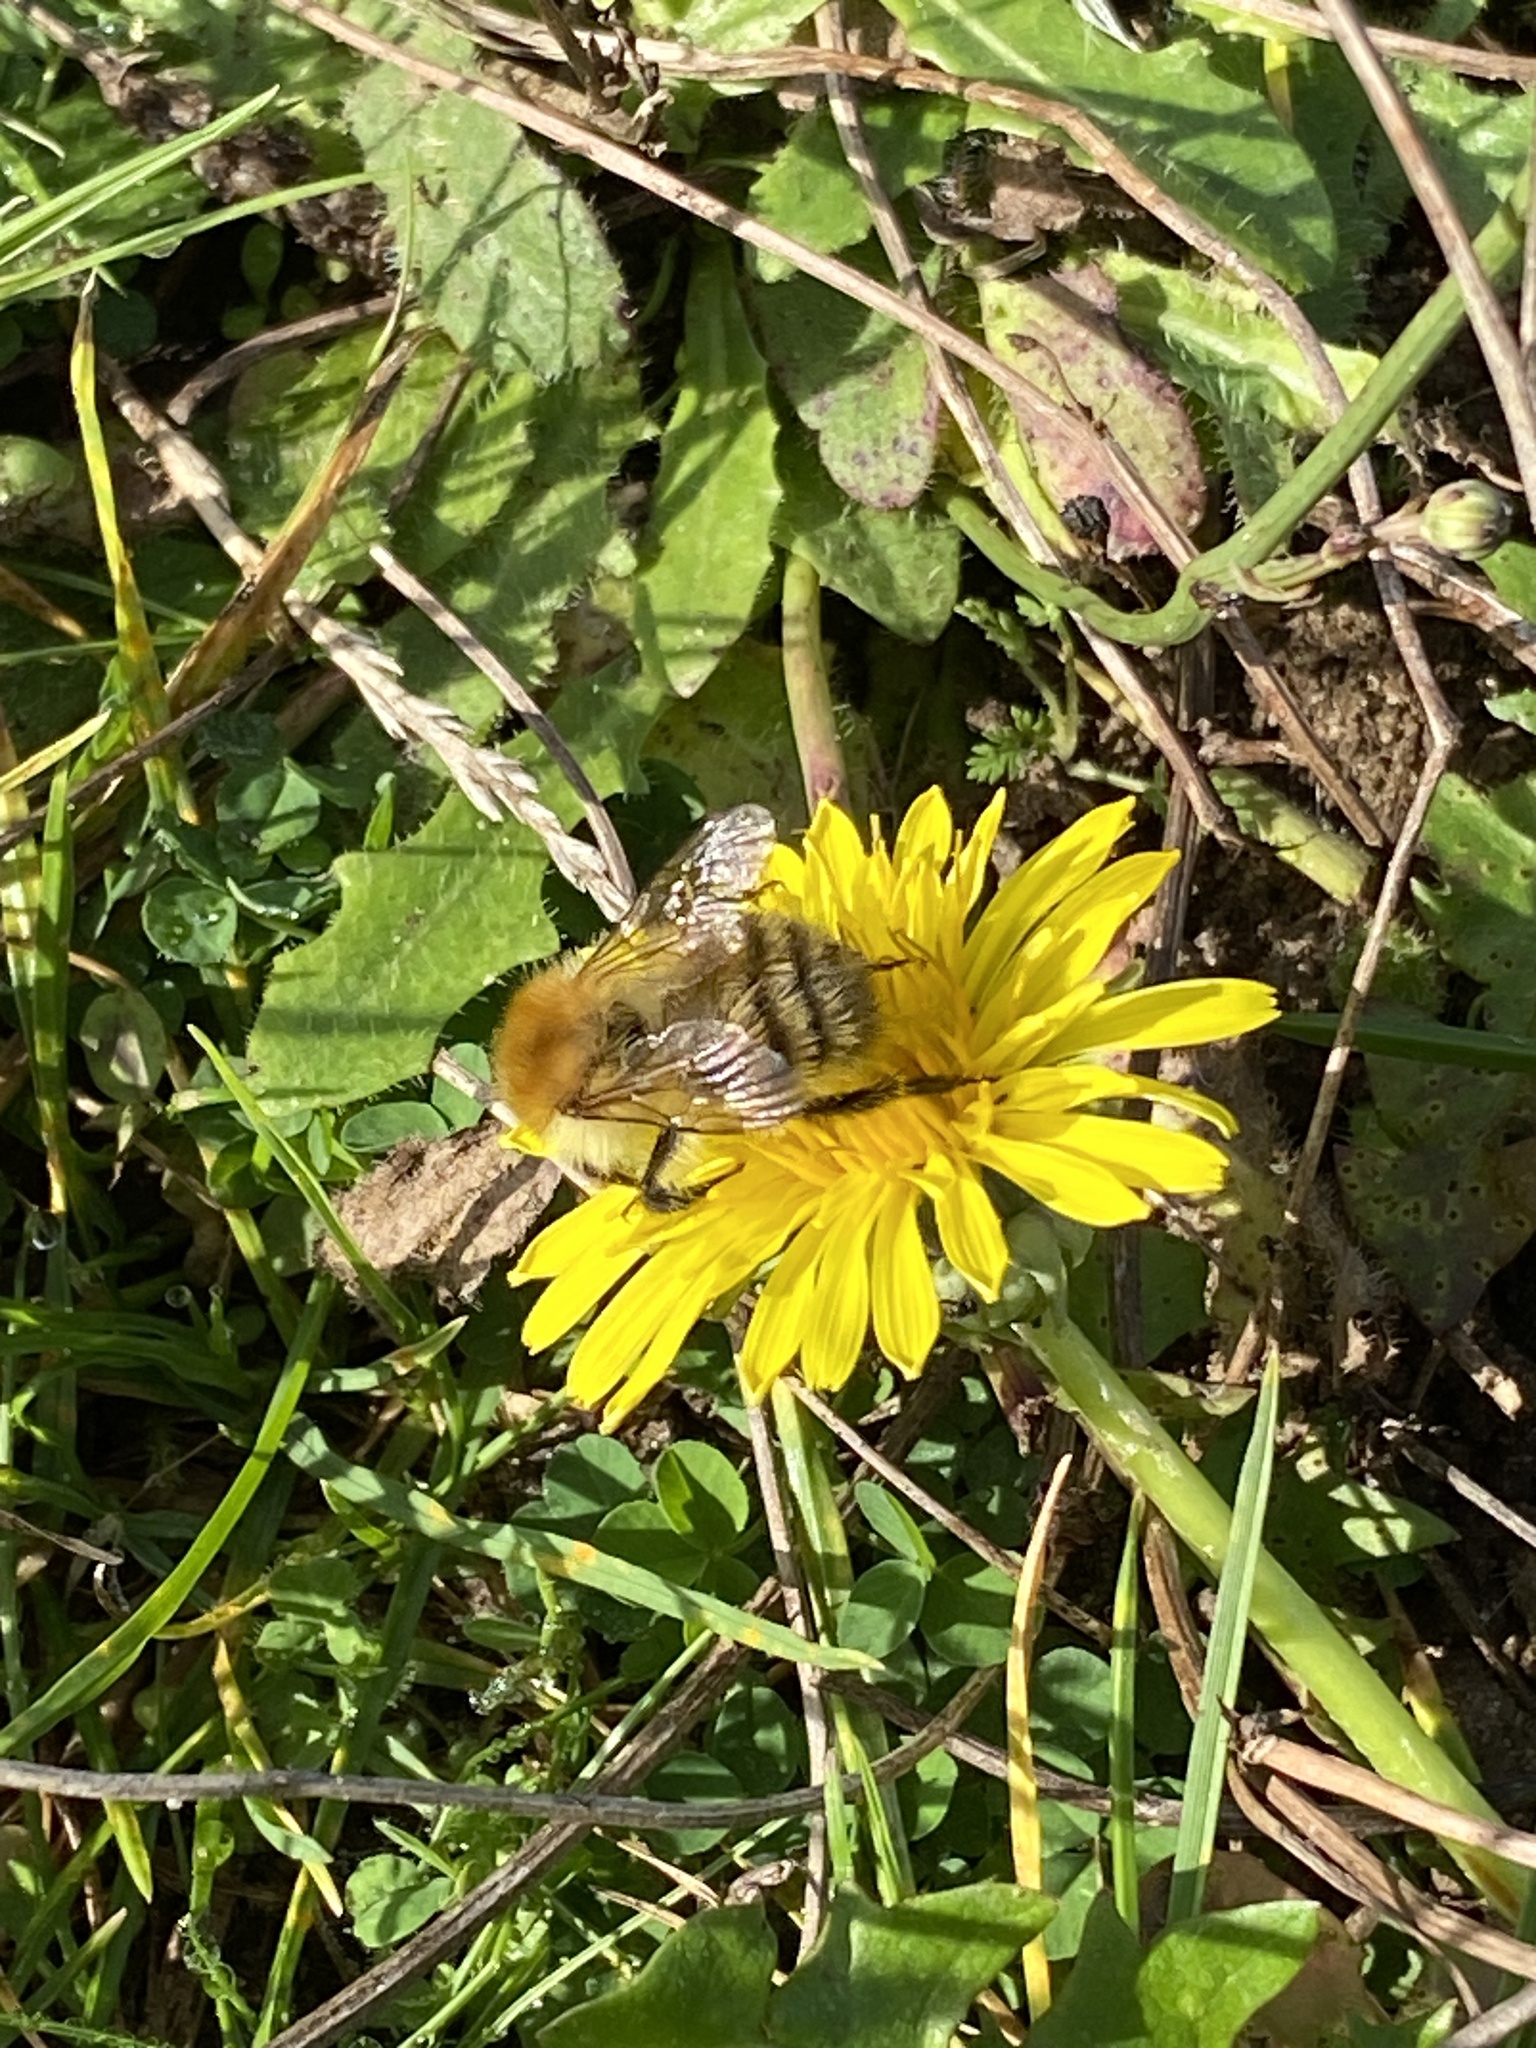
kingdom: Animalia
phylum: Arthropoda
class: Insecta
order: Hymenoptera
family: Apidae
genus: Bombus
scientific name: Bombus pascuorum
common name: Common carder bee
